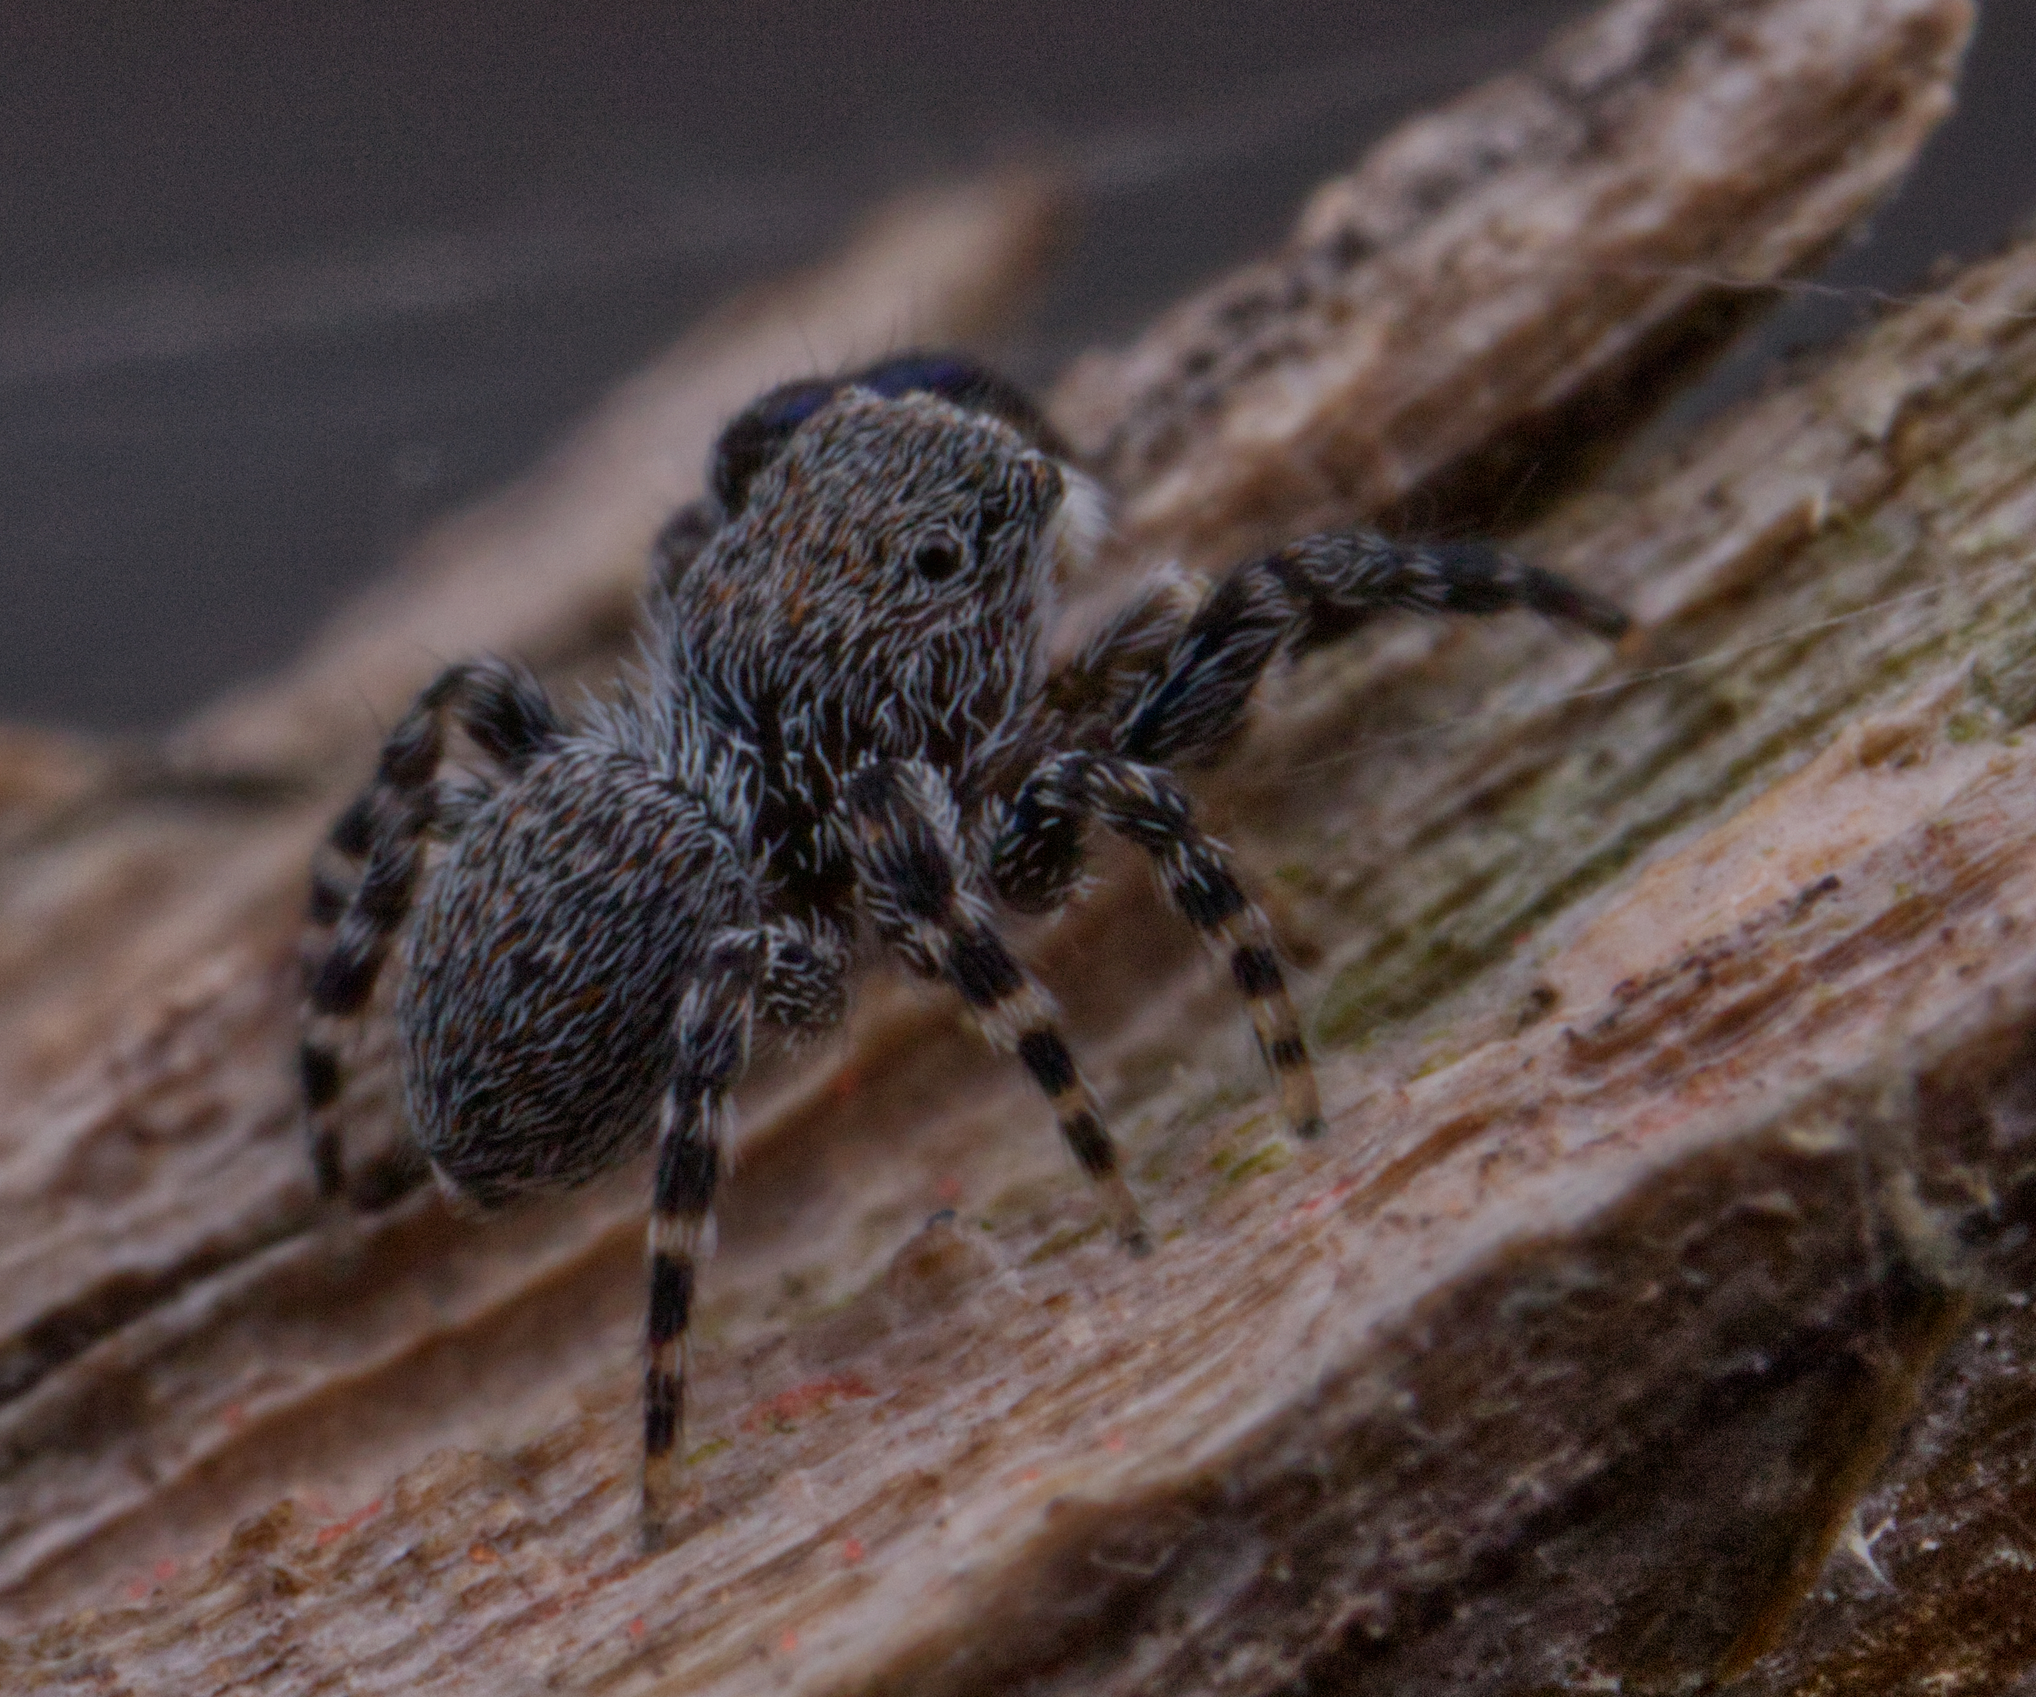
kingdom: Animalia
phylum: Arthropoda
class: Arachnida
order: Araneae
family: Salticidae
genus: Talavera
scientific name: Talavera minuta
